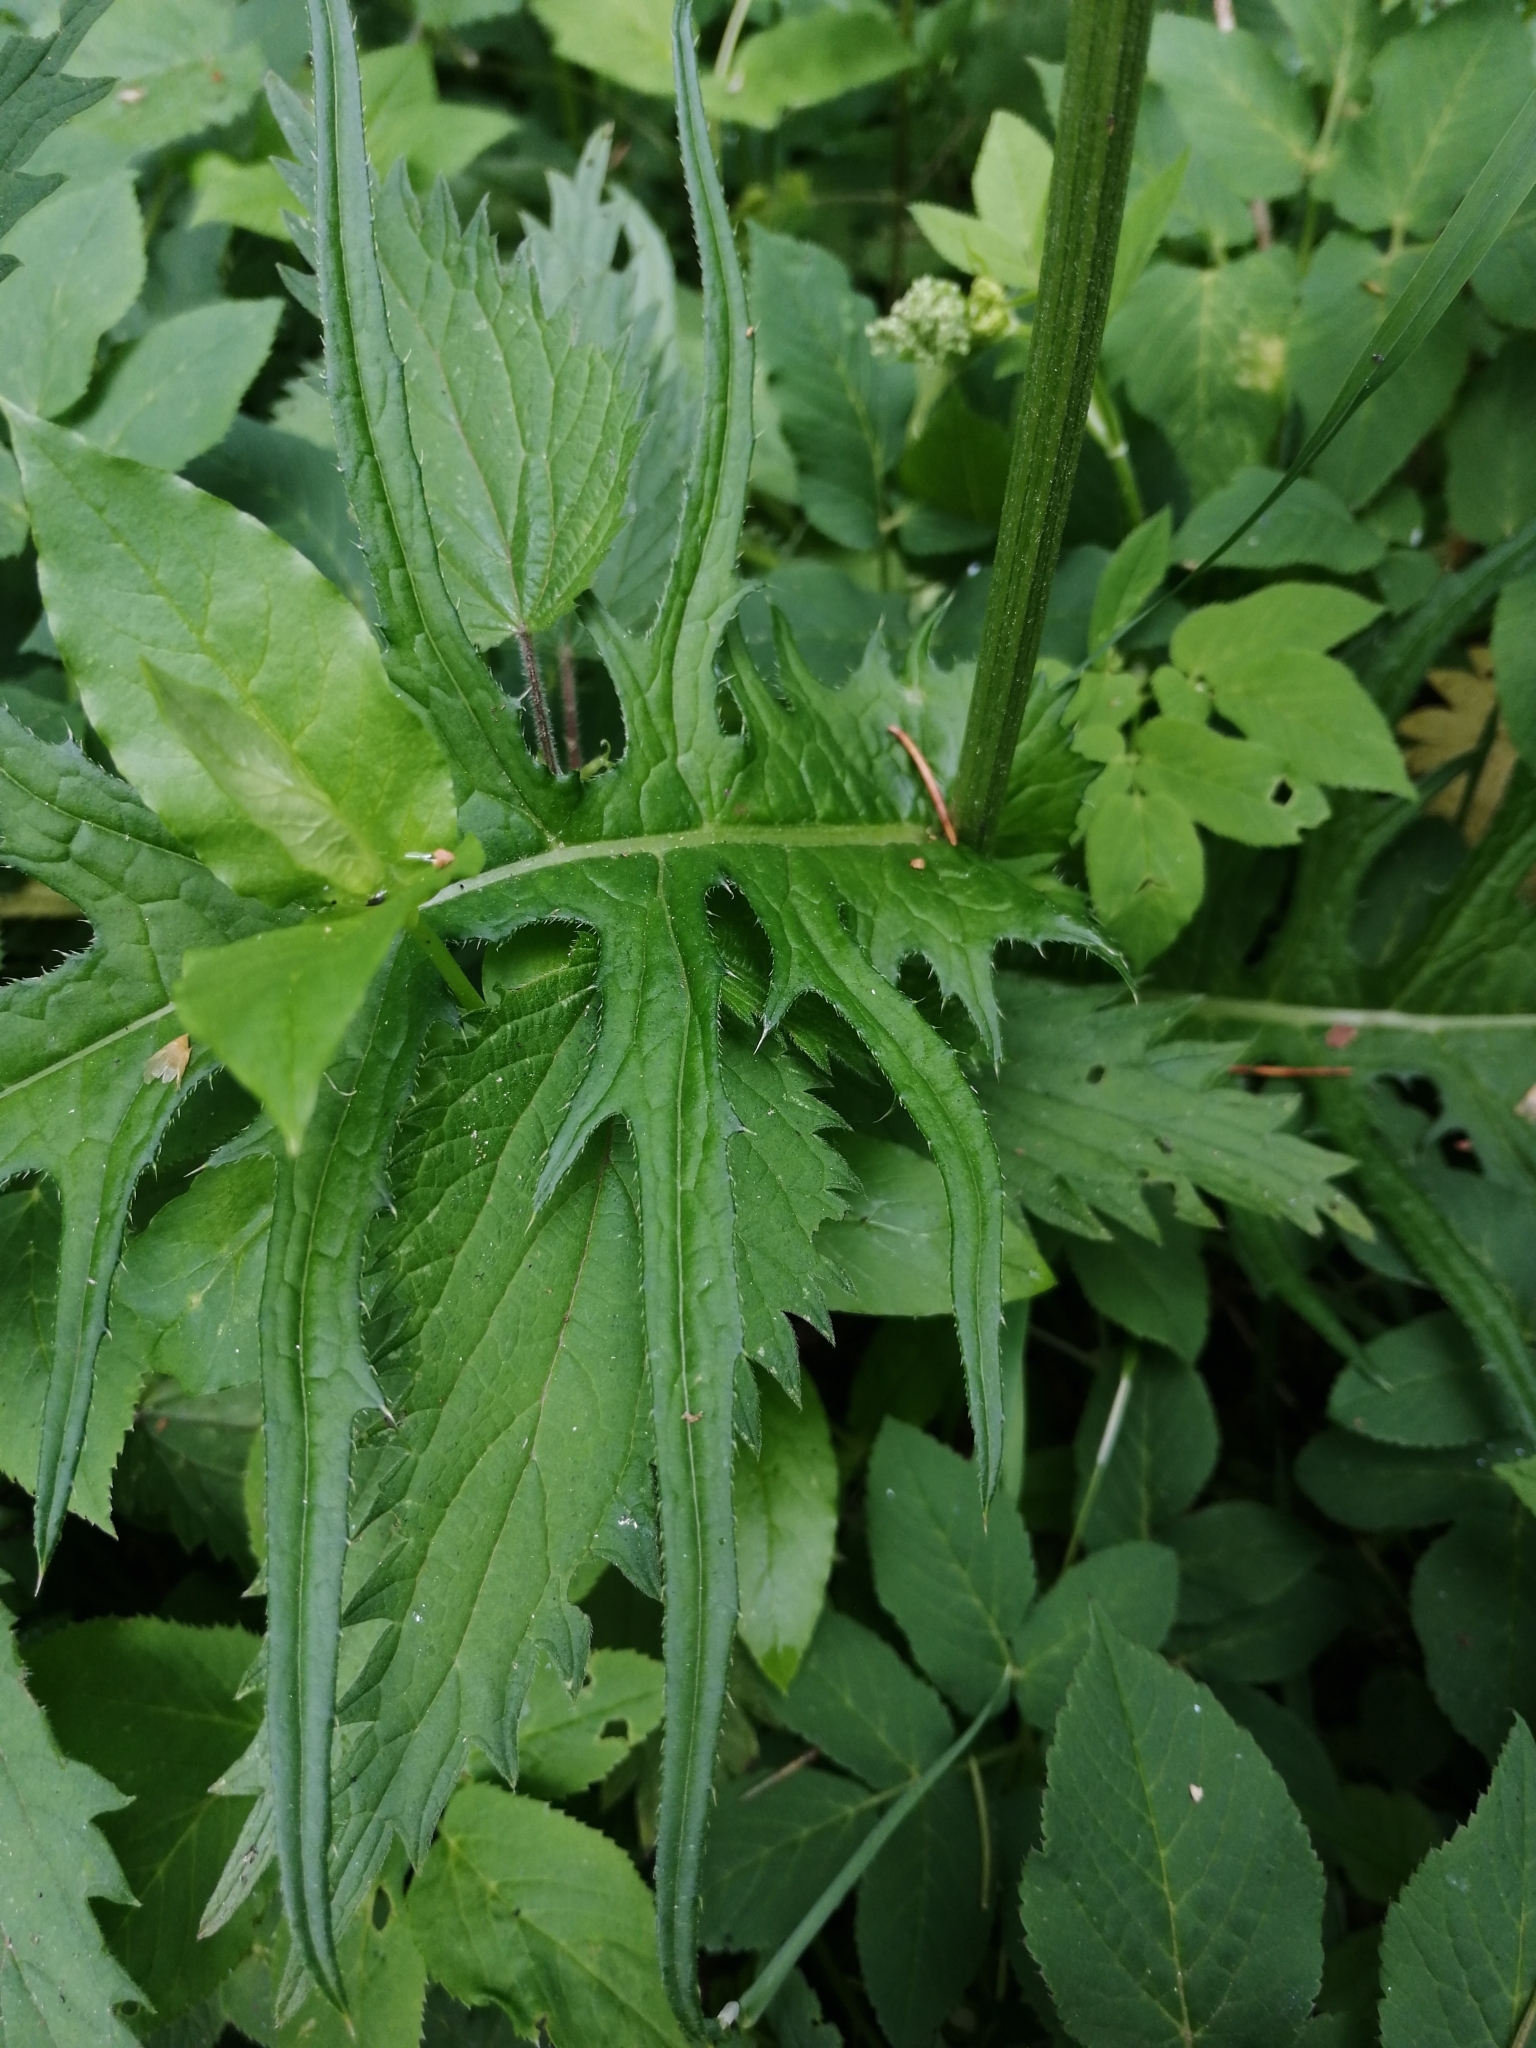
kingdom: Plantae
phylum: Tracheophyta
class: Magnoliopsida
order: Asterales
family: Asteraceae
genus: Cirsium
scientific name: Cirsium rivulare
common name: Brook thistle
